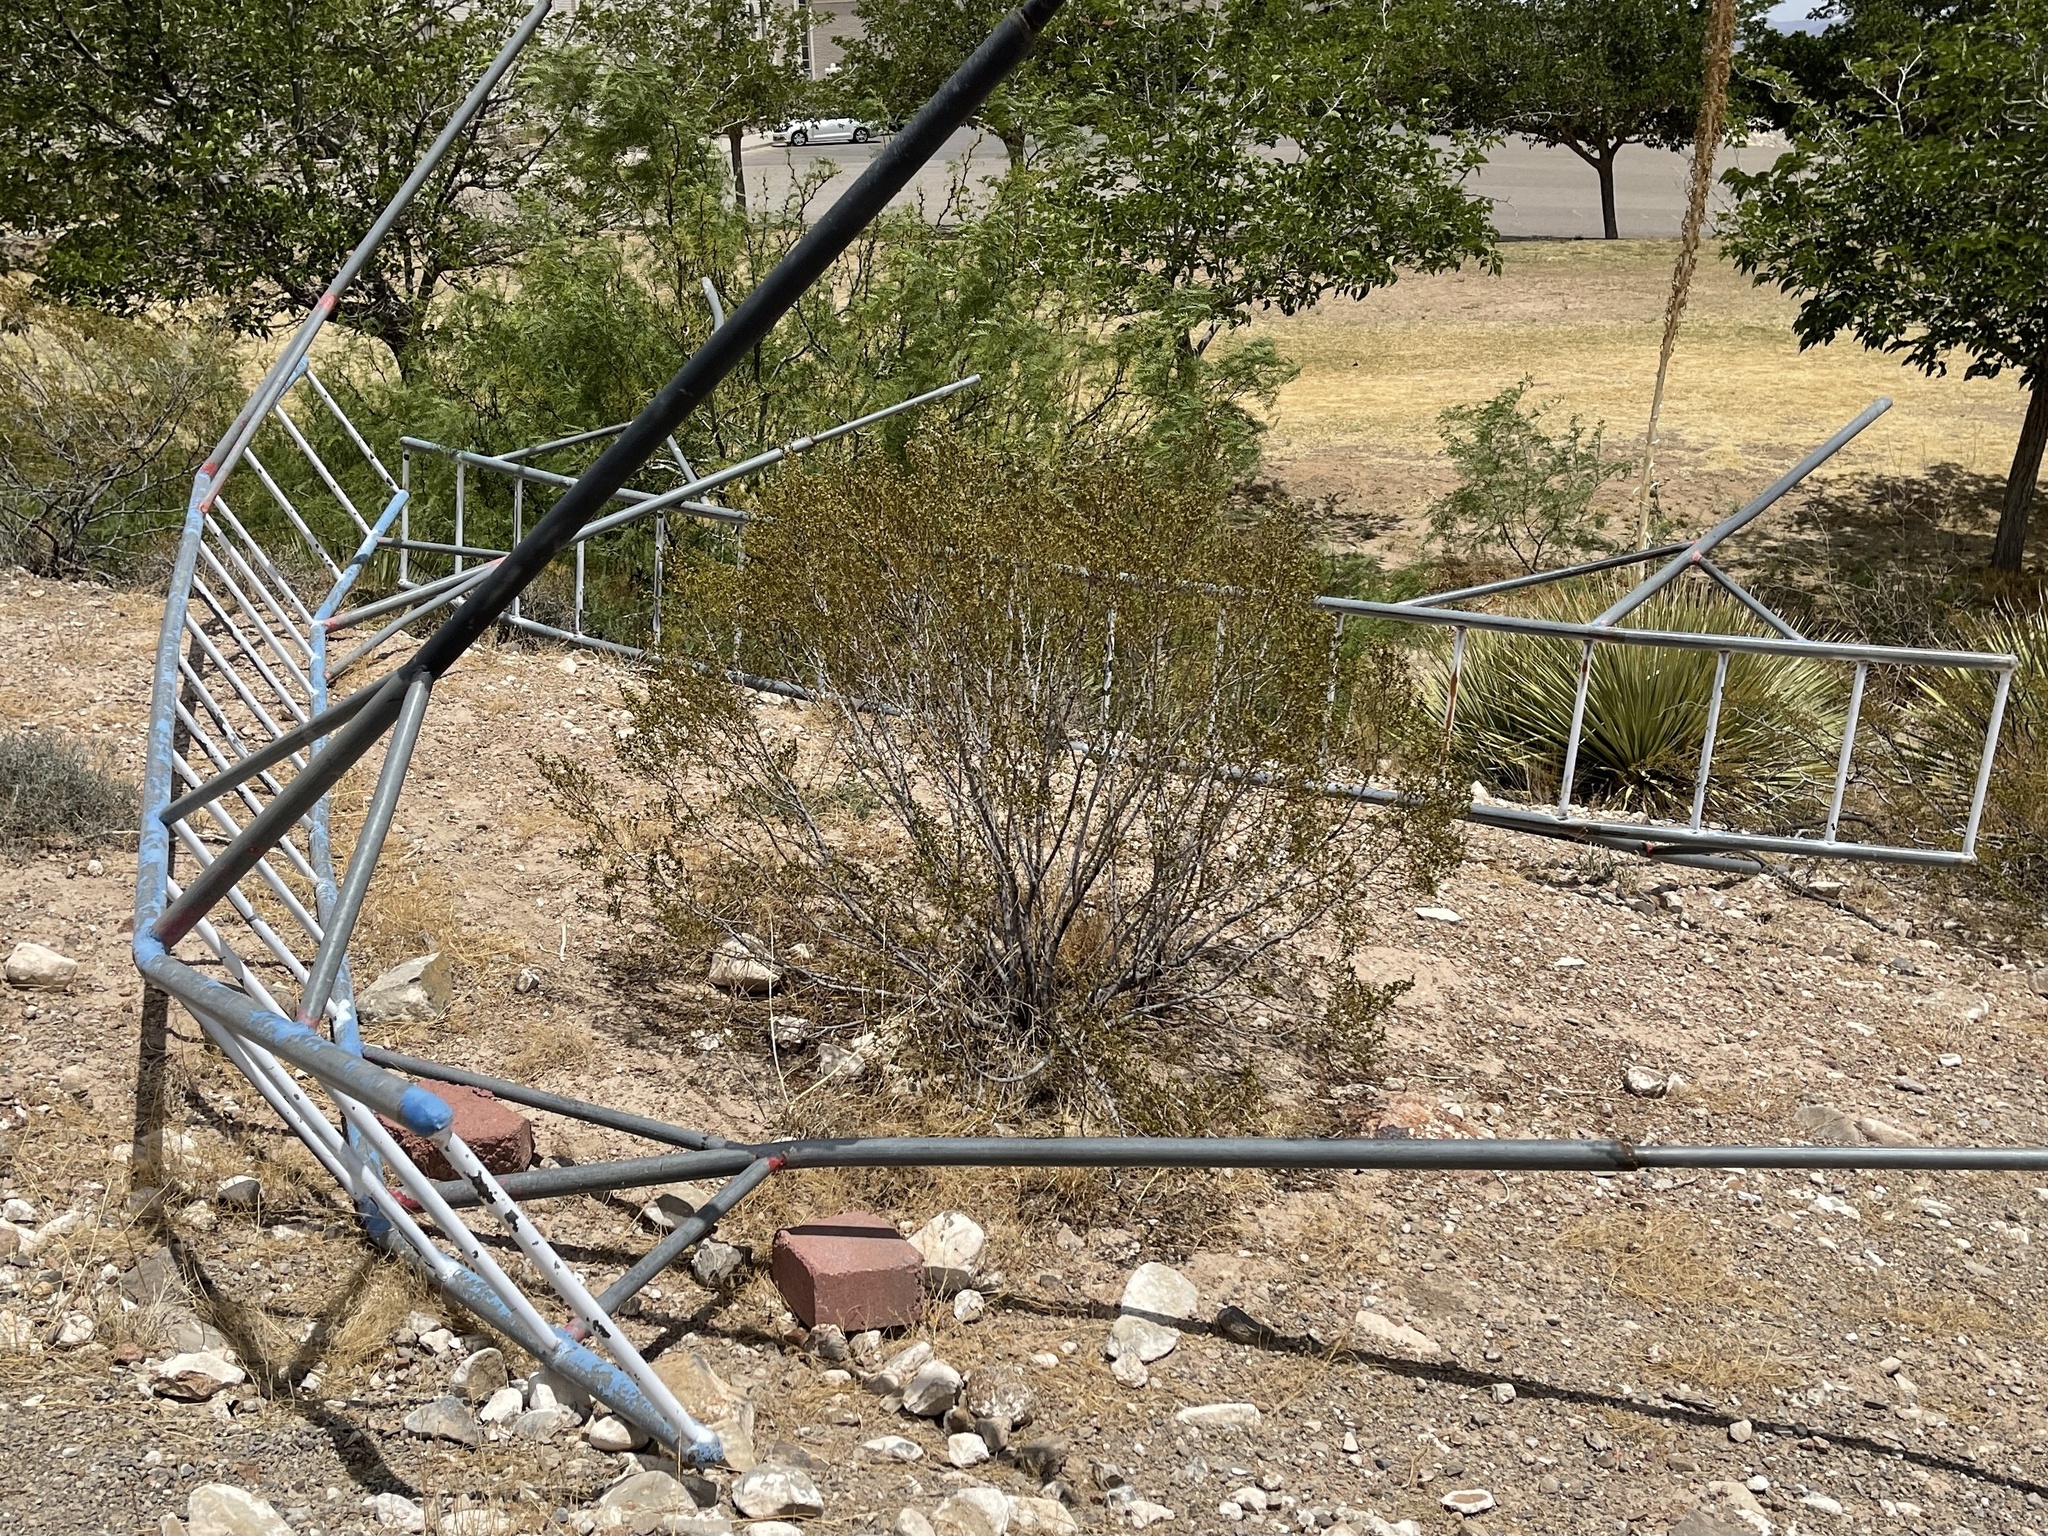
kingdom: Plantae
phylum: Tracheophyta
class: Magnoliopsida
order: Zygophyllales
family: Zygophyllaceae
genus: Larrea
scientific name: Larrea tridentata
